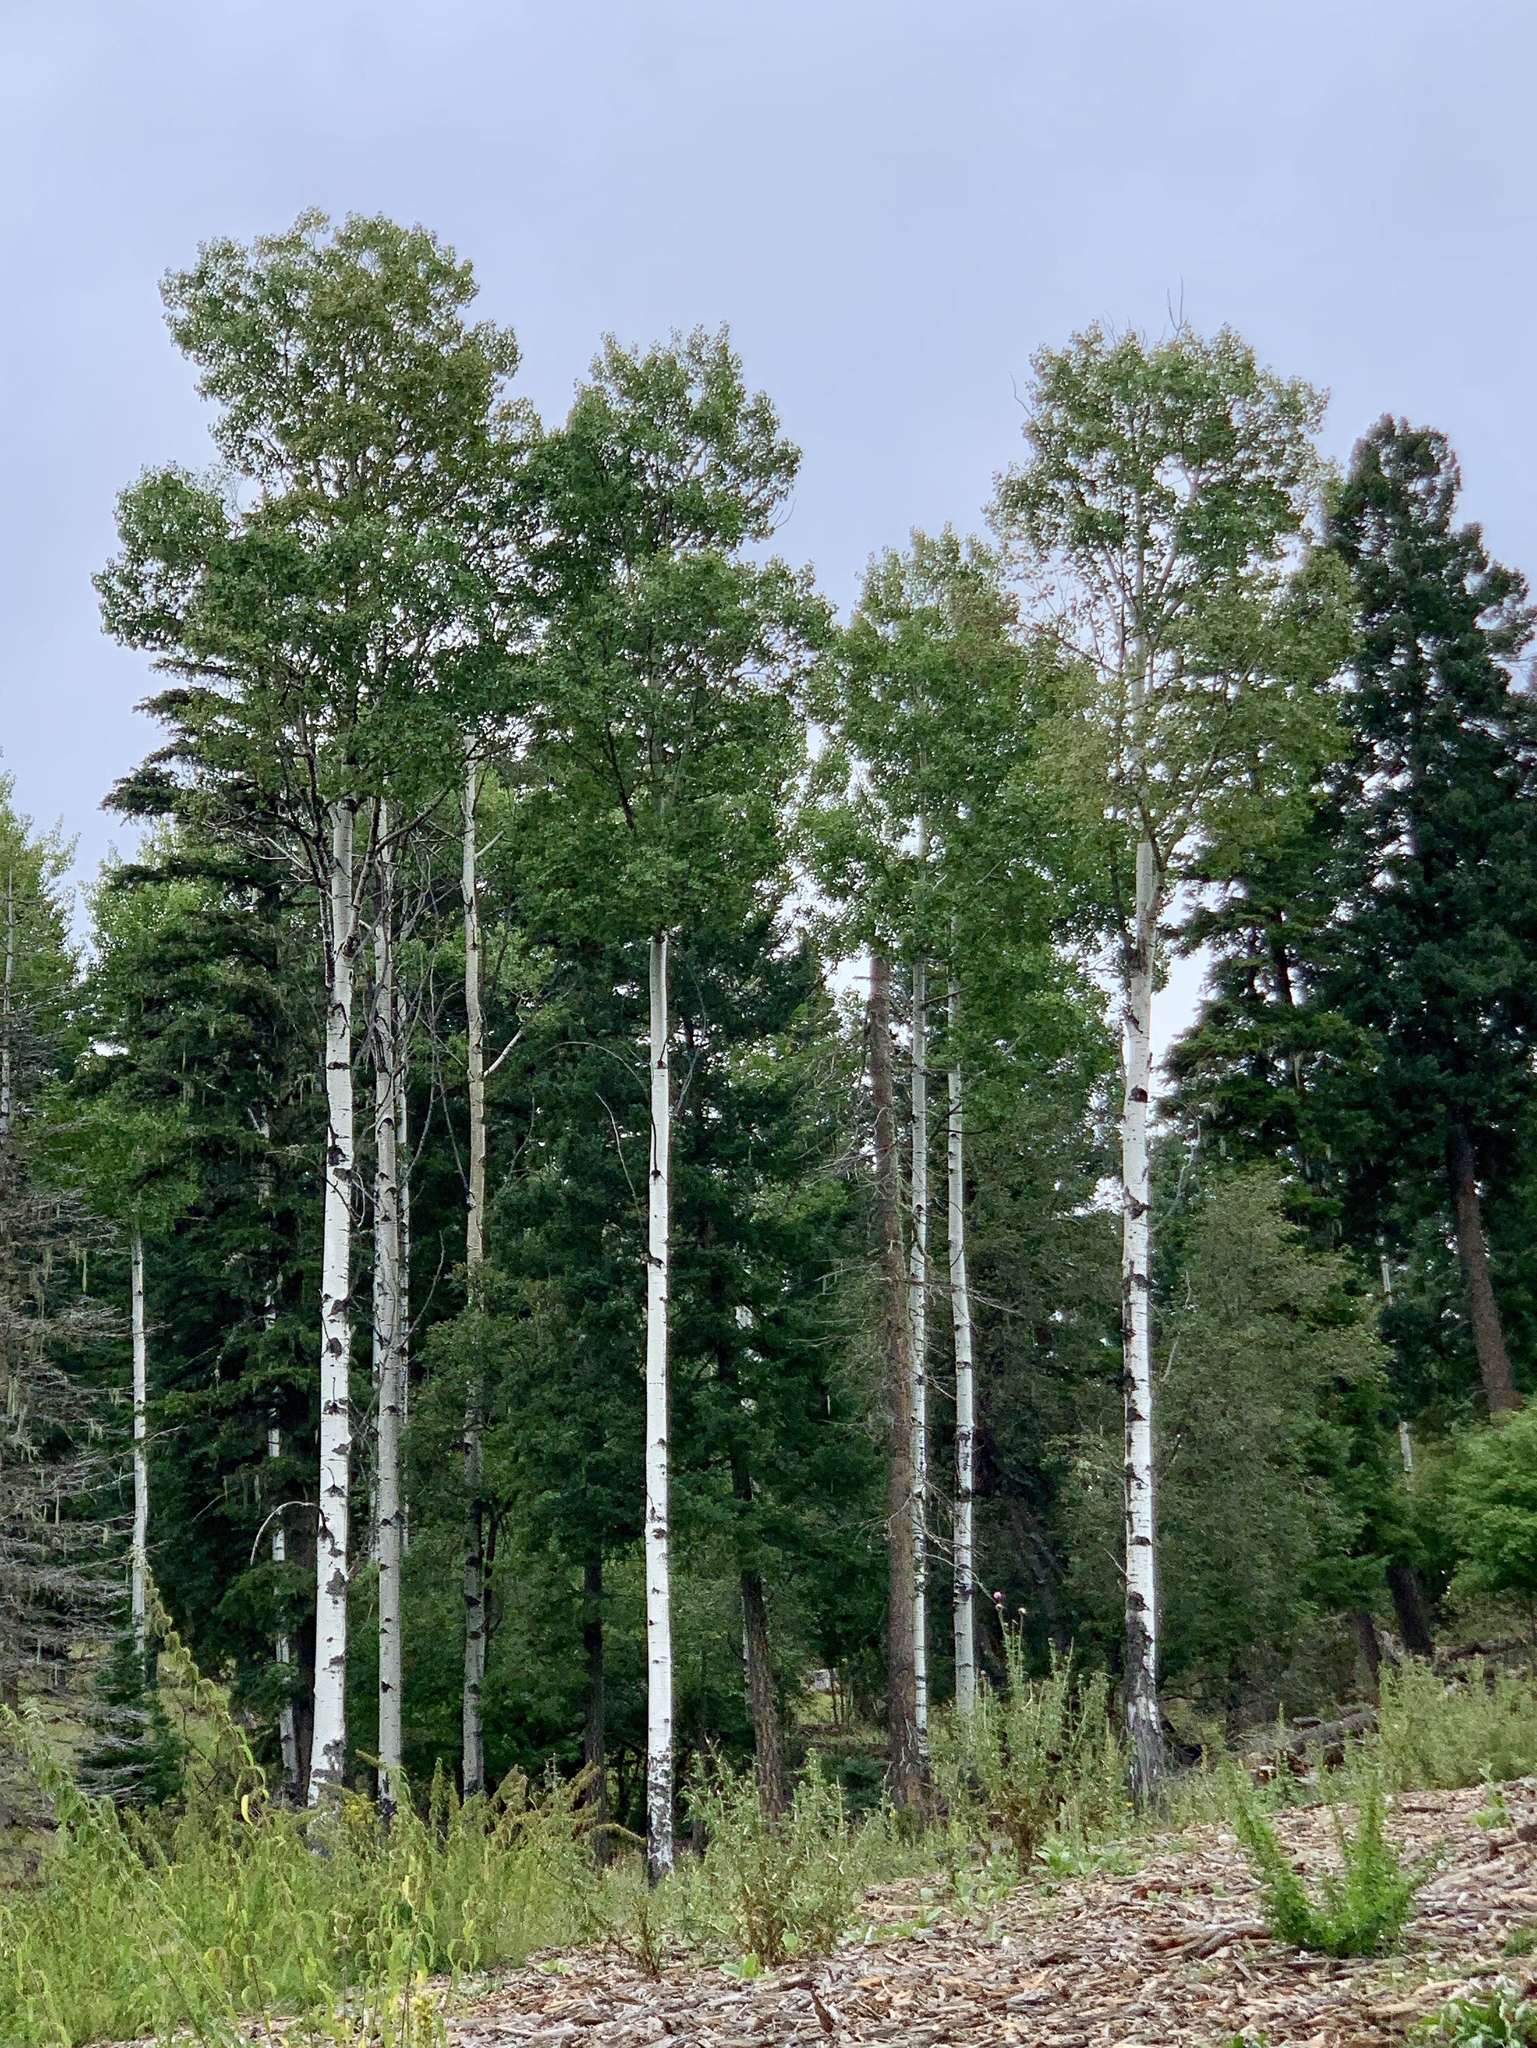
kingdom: Plantae
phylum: Tracheophyta
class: Magnoliopsida
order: Malpighiales
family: Salicaceae
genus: Populus
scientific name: Populus tremuloides
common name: Quaking aspen
